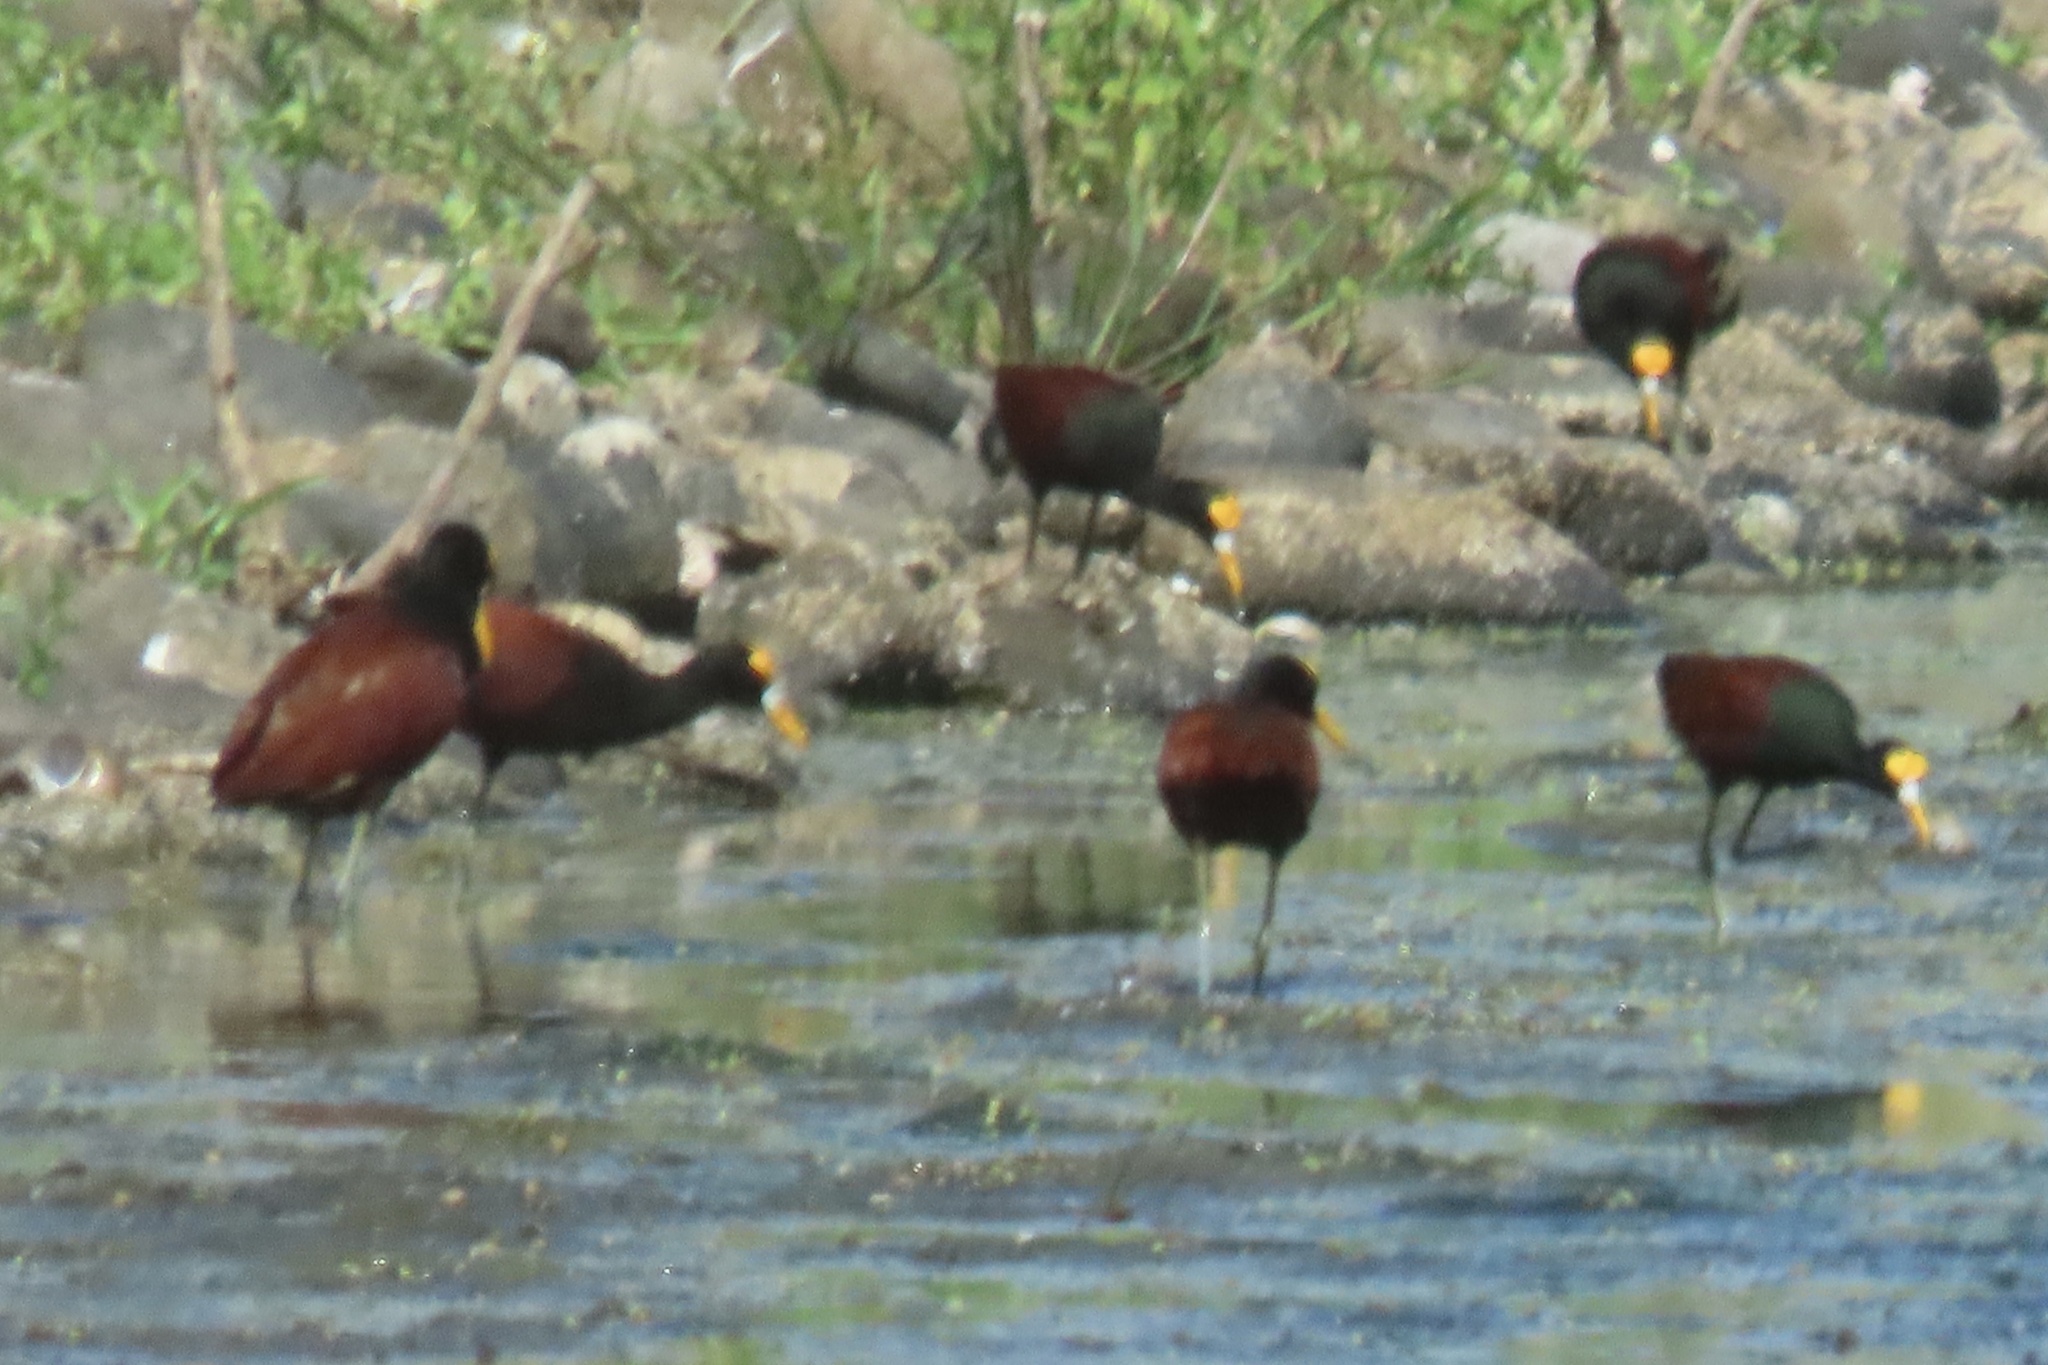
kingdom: Animalia
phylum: Chordata
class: Aves
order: Charadriiformes
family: Jacanidae
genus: Jacana
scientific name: Jacana spinosa
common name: Northern jacana
